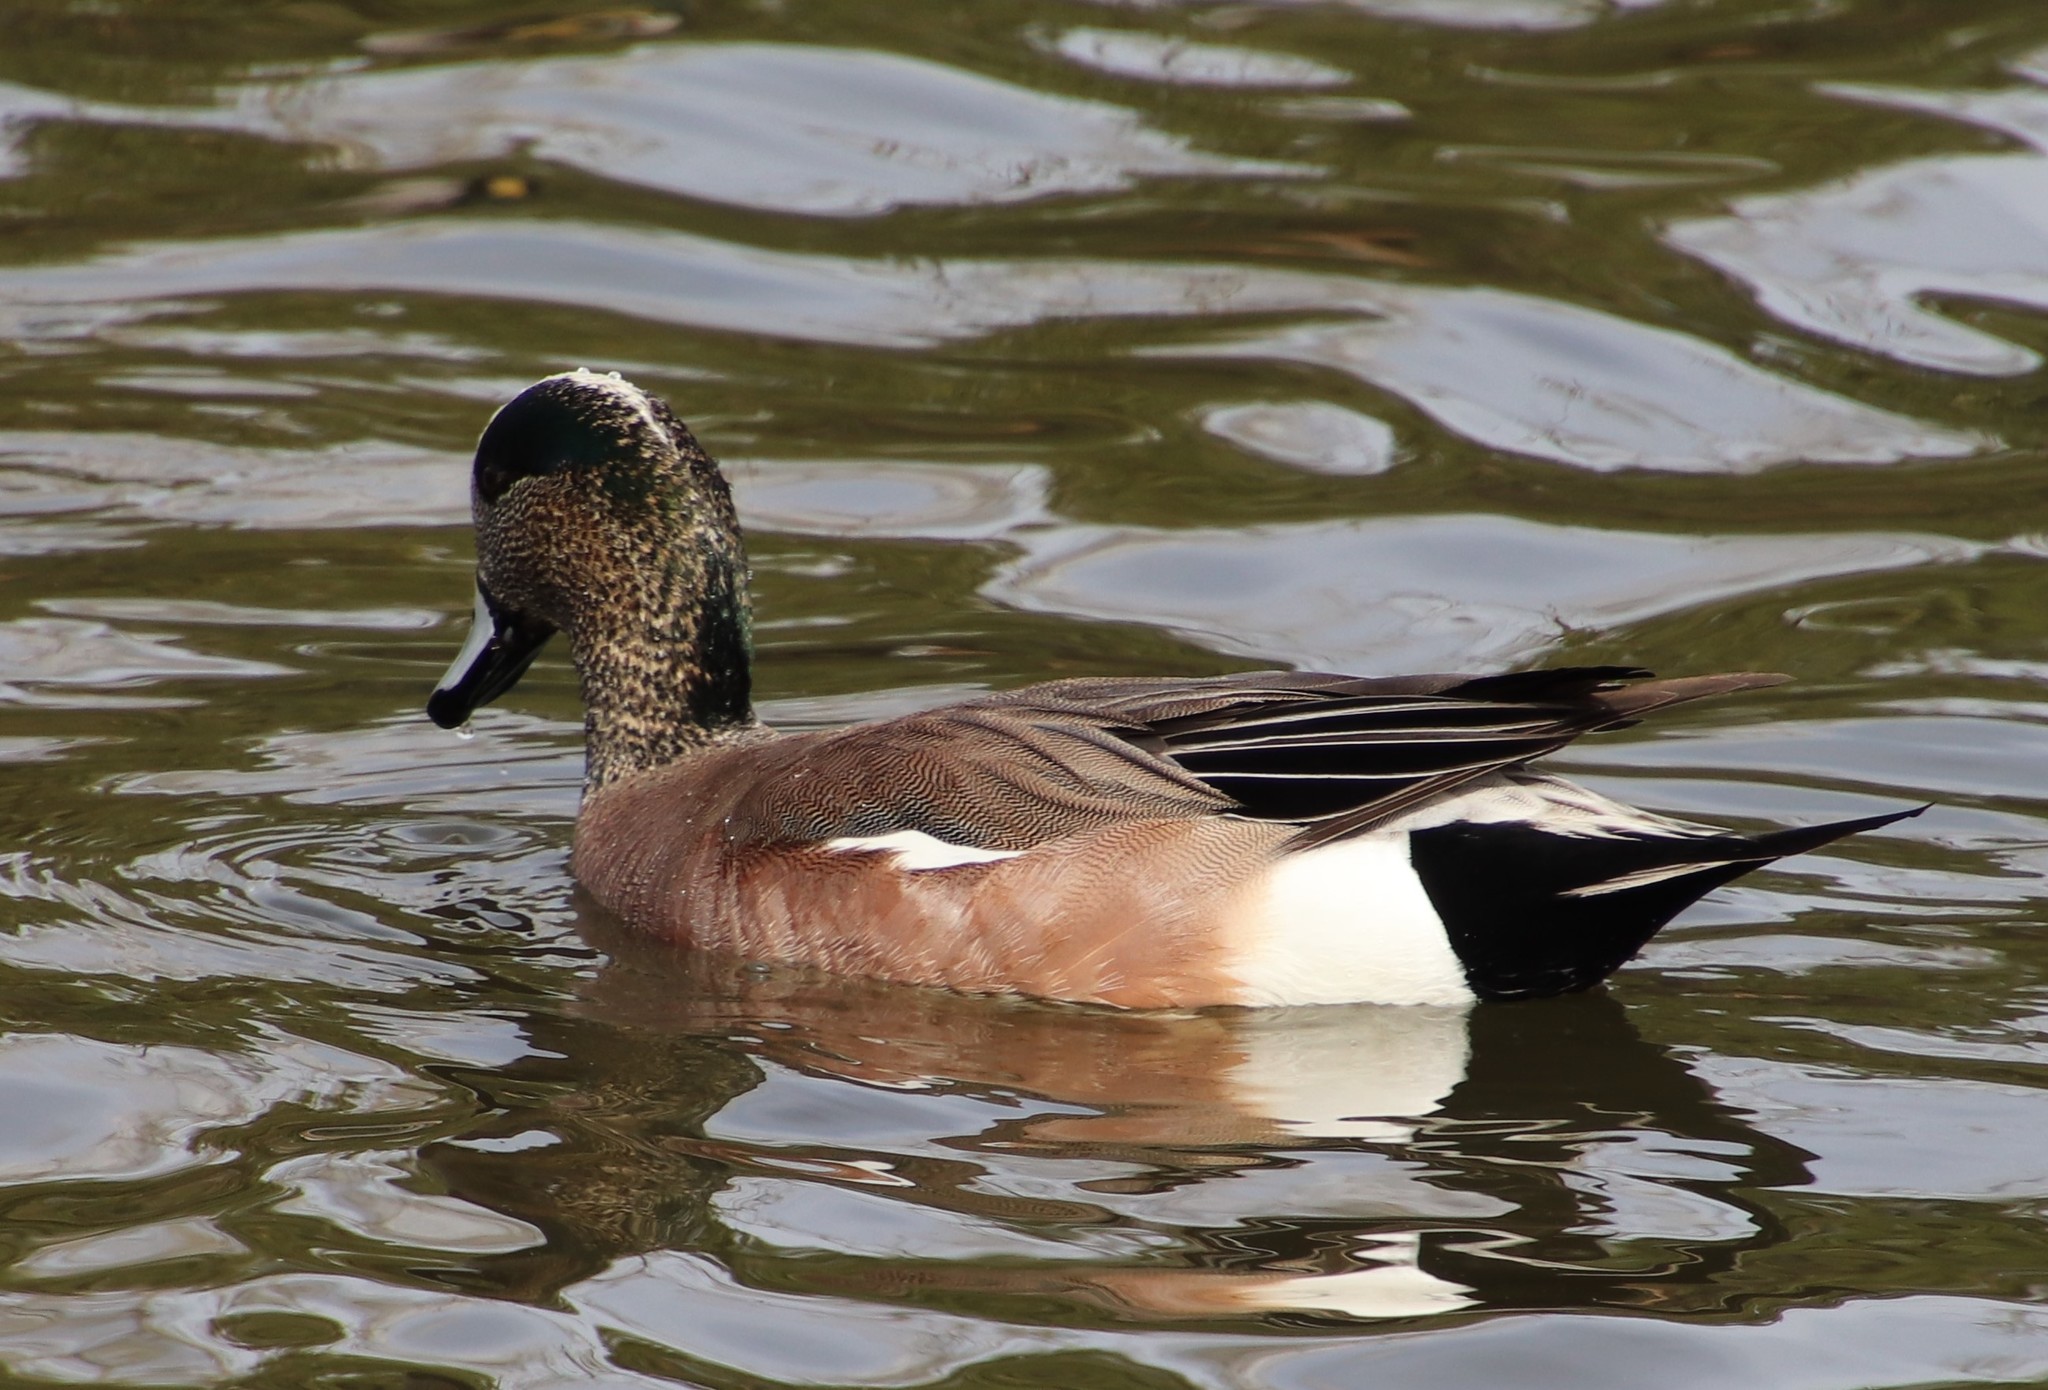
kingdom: Animalia
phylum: Chordata
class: Aves
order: Anseriformes
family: Anatidae
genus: Mareca
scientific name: Mareca americana
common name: American wigeon
